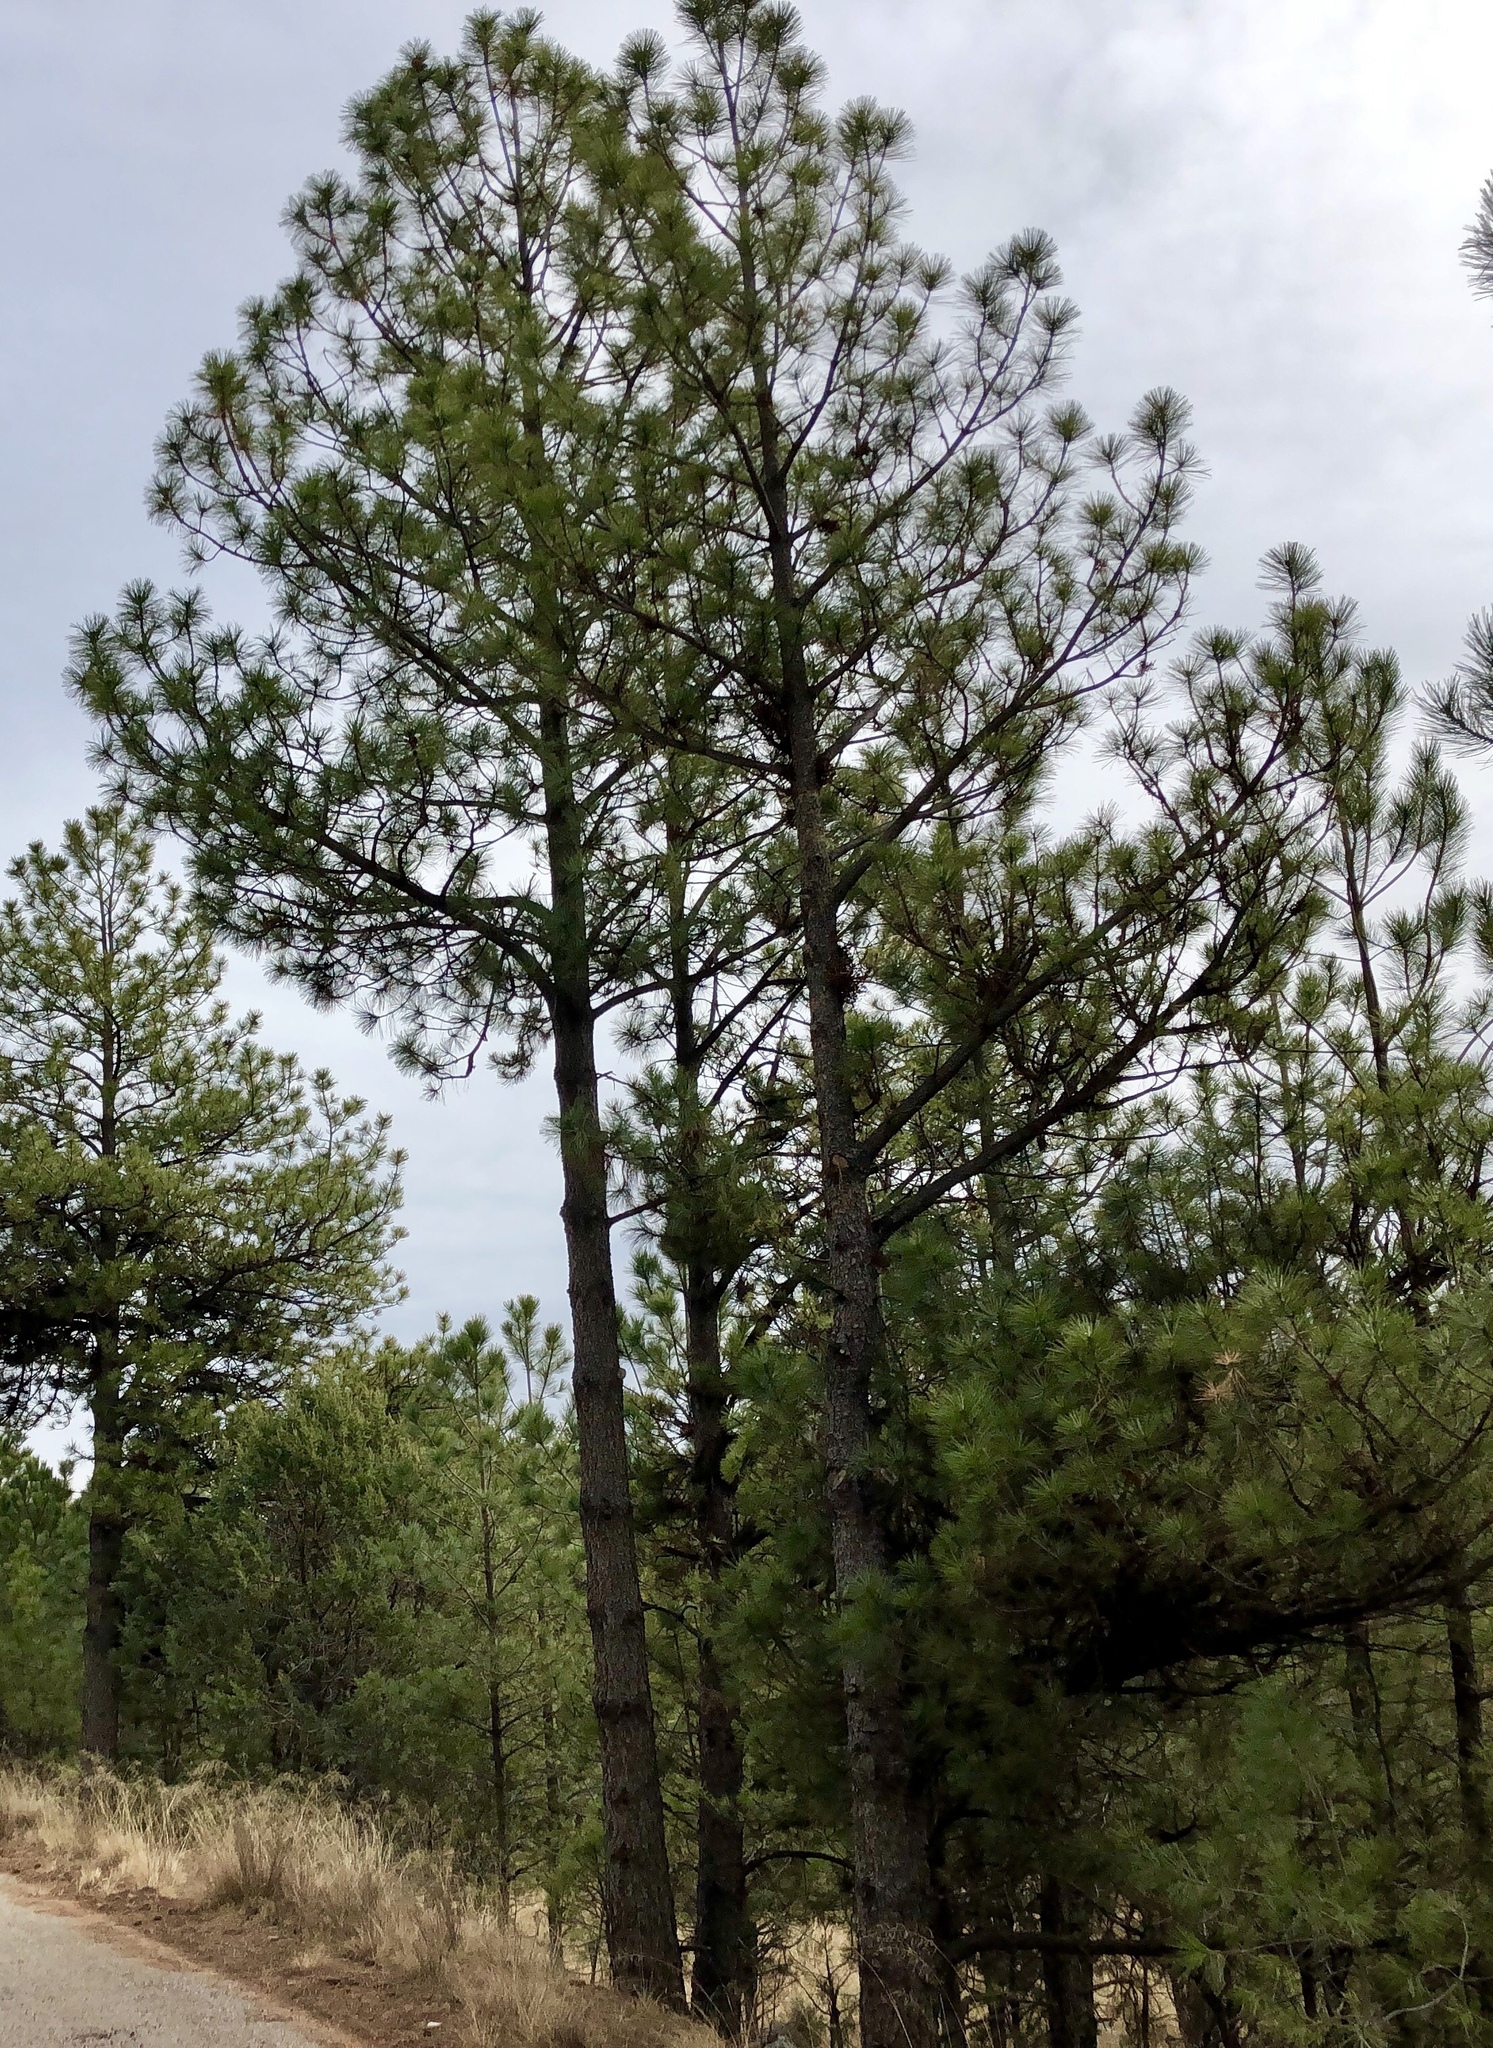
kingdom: Plantae
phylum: Tracheophyta
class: Pinopsida
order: Pinales
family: Pinaceae
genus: Pinus
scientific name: Pinus ponderosa
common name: Western yellow-pine
